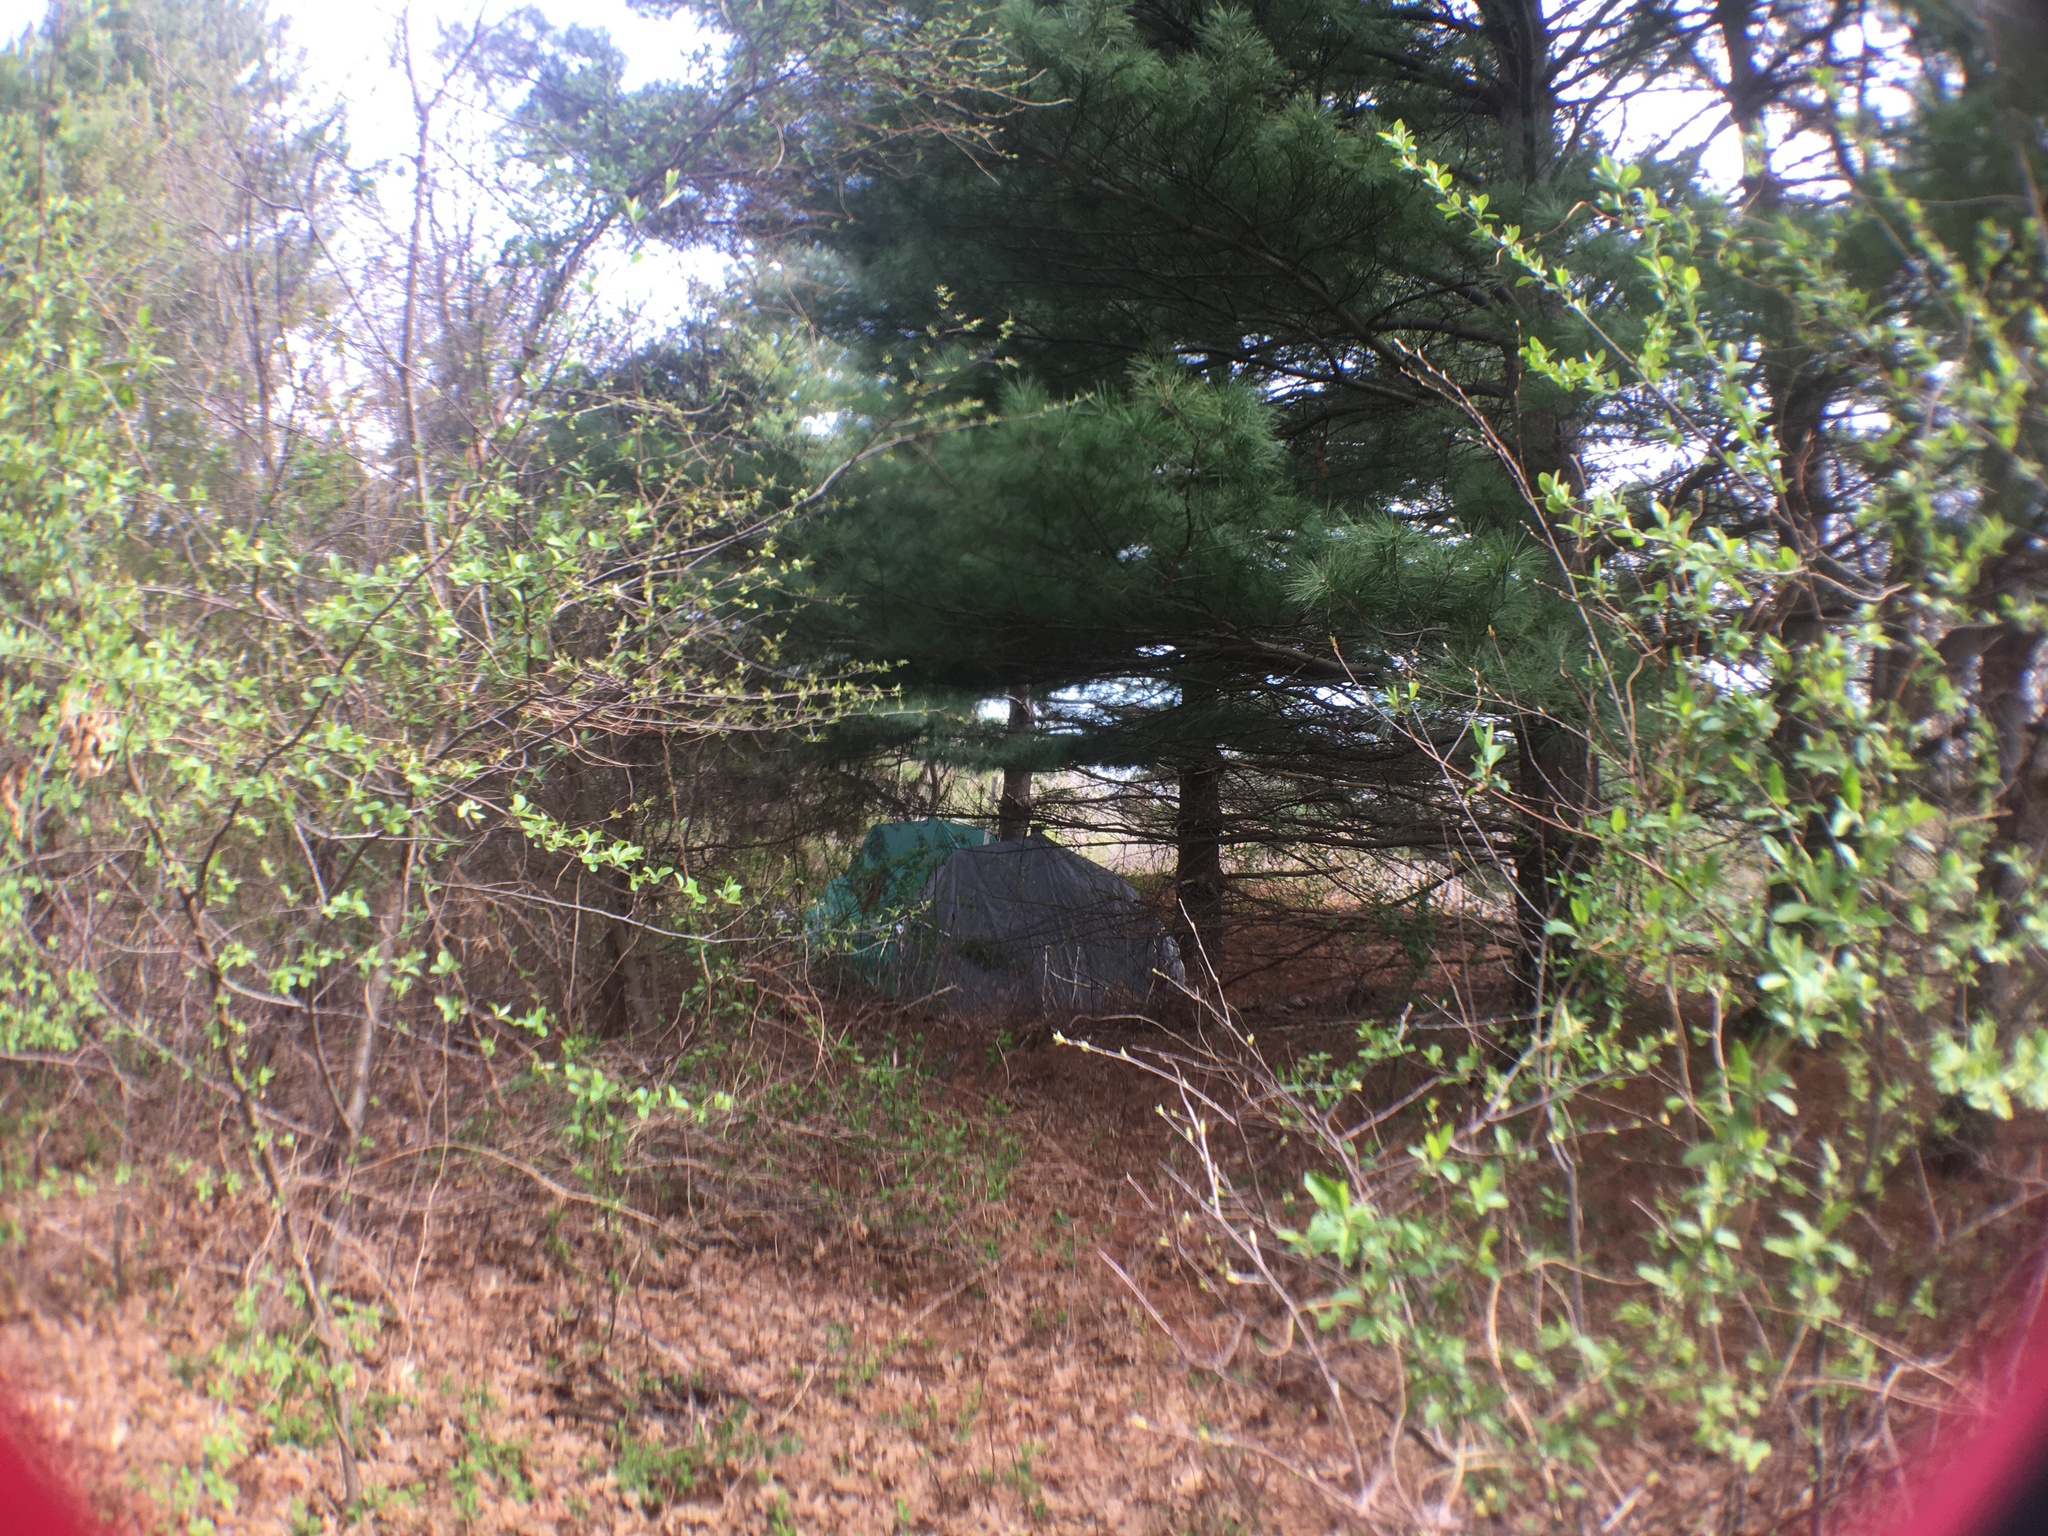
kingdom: Plantae
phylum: Tracheophyta
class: Pinopsida
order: Pinales
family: Pinaceae
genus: Pinus
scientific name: Pinus strobus
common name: Weymouth pine
